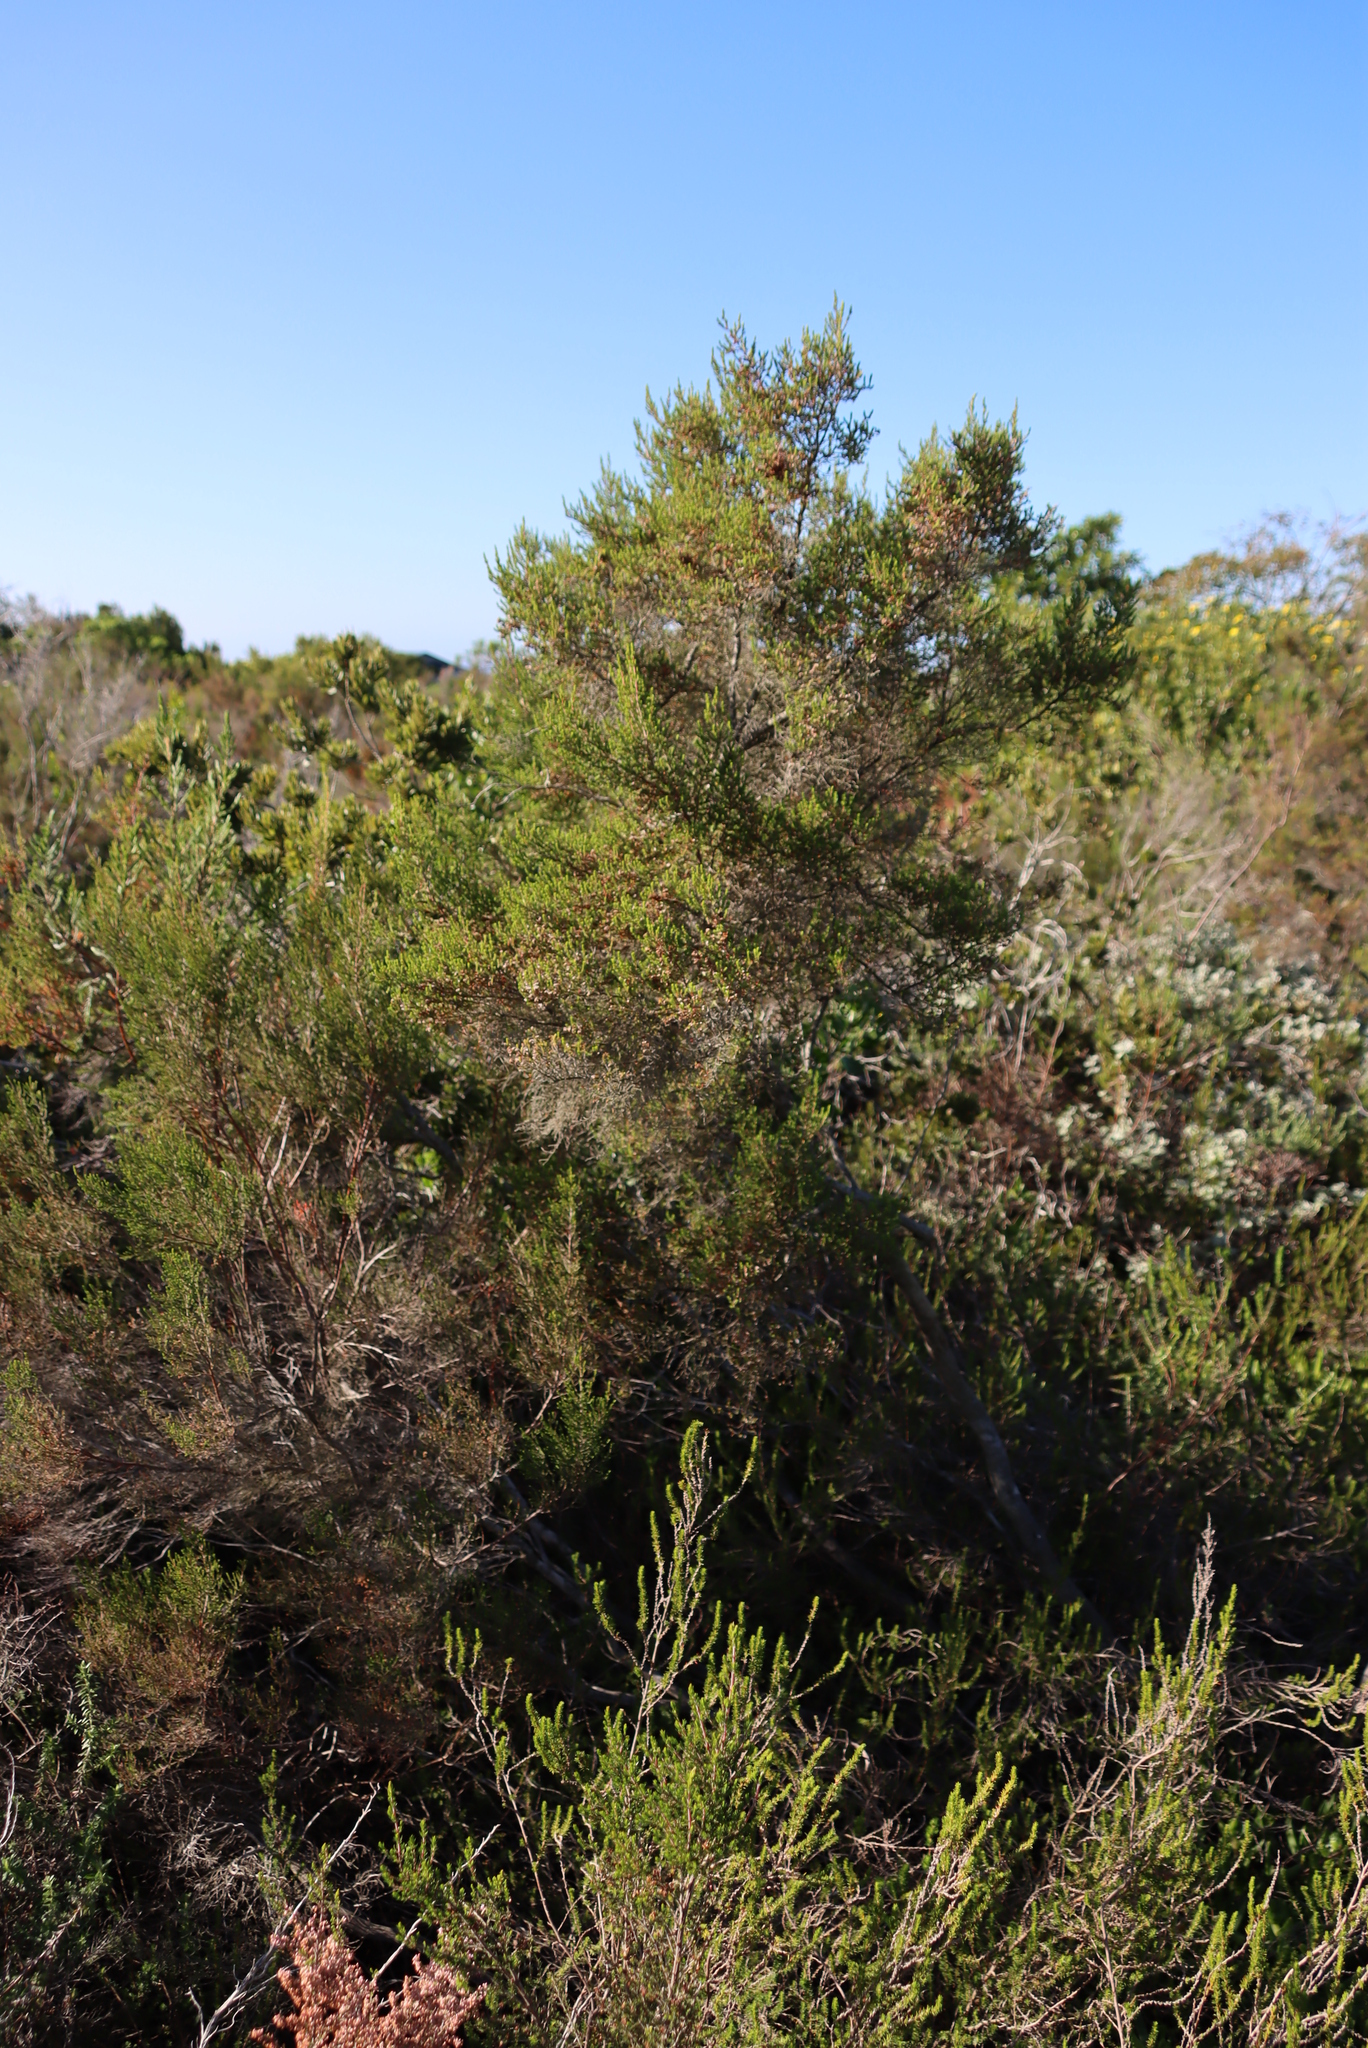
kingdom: Plantae
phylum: Tracheophyta
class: Magnoliopsida
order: Ericales
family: Ericaceae
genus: Erica
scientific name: Erica leucopelta
